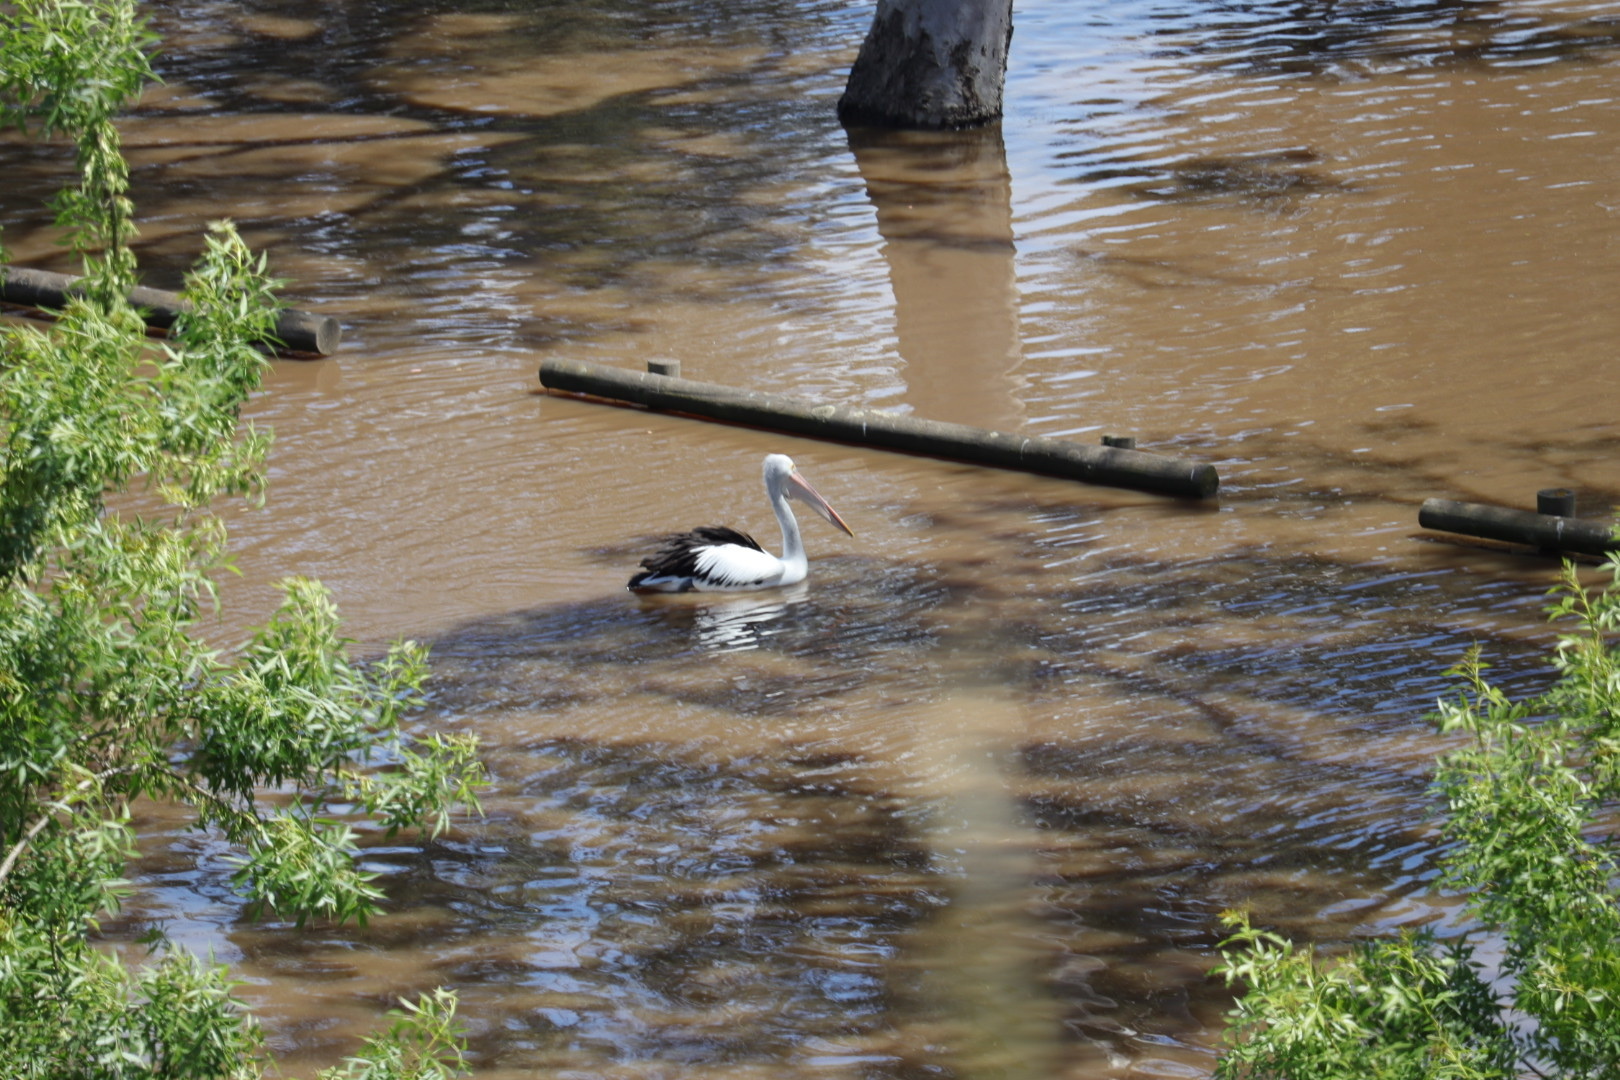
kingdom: Animalia
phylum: Chordata
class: Aves
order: Pelecaniformes
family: Pelecanidae
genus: Pelecanus
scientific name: Pelecanus conspicillatus
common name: Australian pelican
